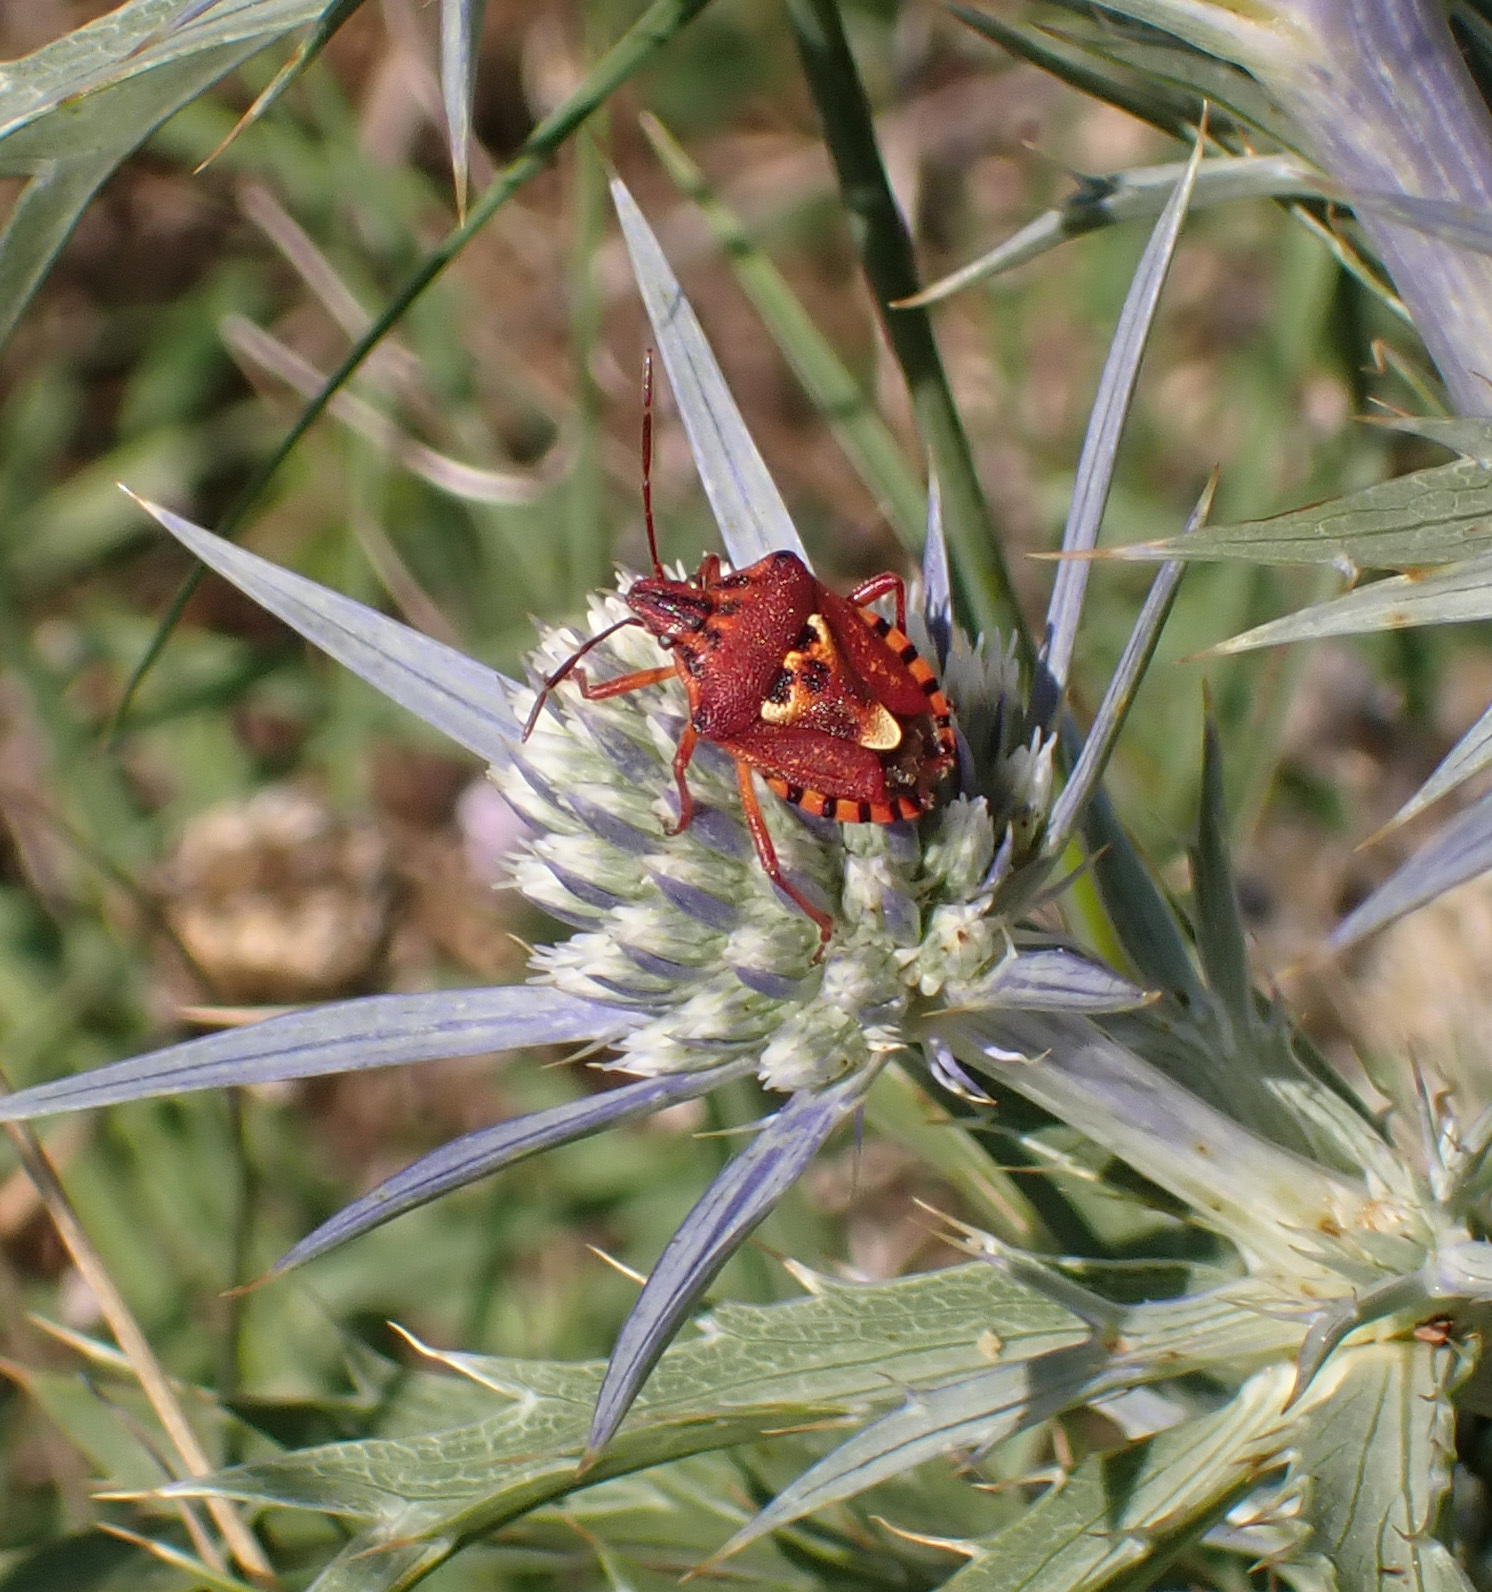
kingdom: Animalia
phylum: Arthropoda
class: Insecta
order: Hemiptera
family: Miridae
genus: Orthops
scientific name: Orthops kalmii
